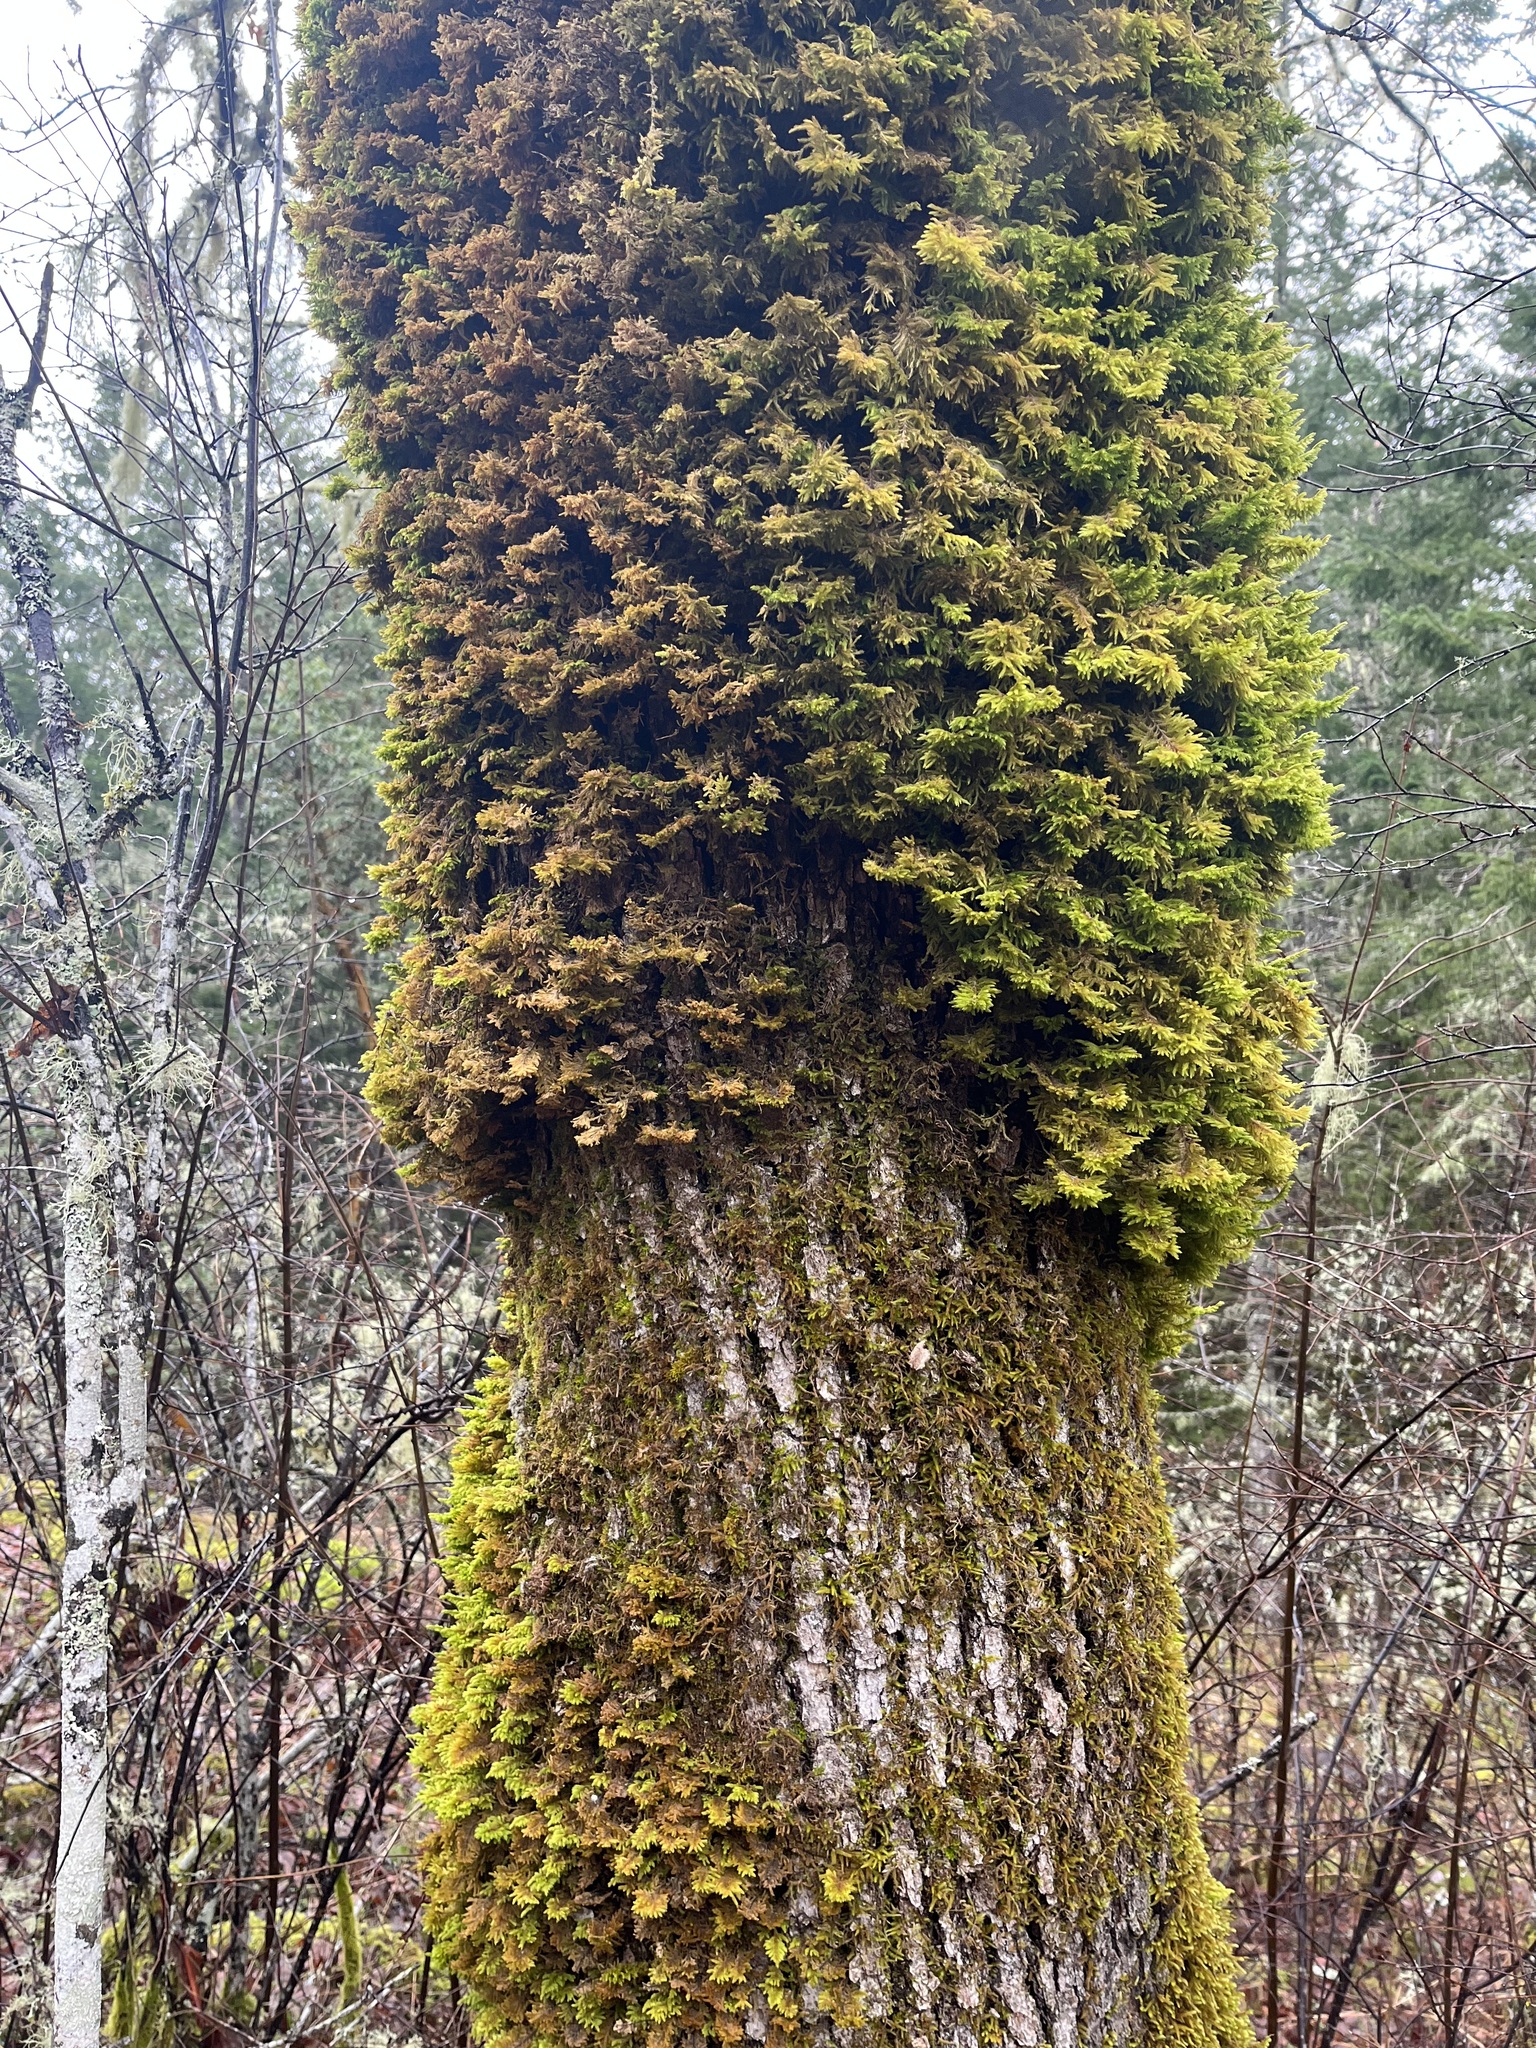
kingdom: Plantae
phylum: Bryophyta
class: Bryopsida
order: Hypnales
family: Cryphaeaceae
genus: Dendroalsia
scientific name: Dendroalsia abietina
